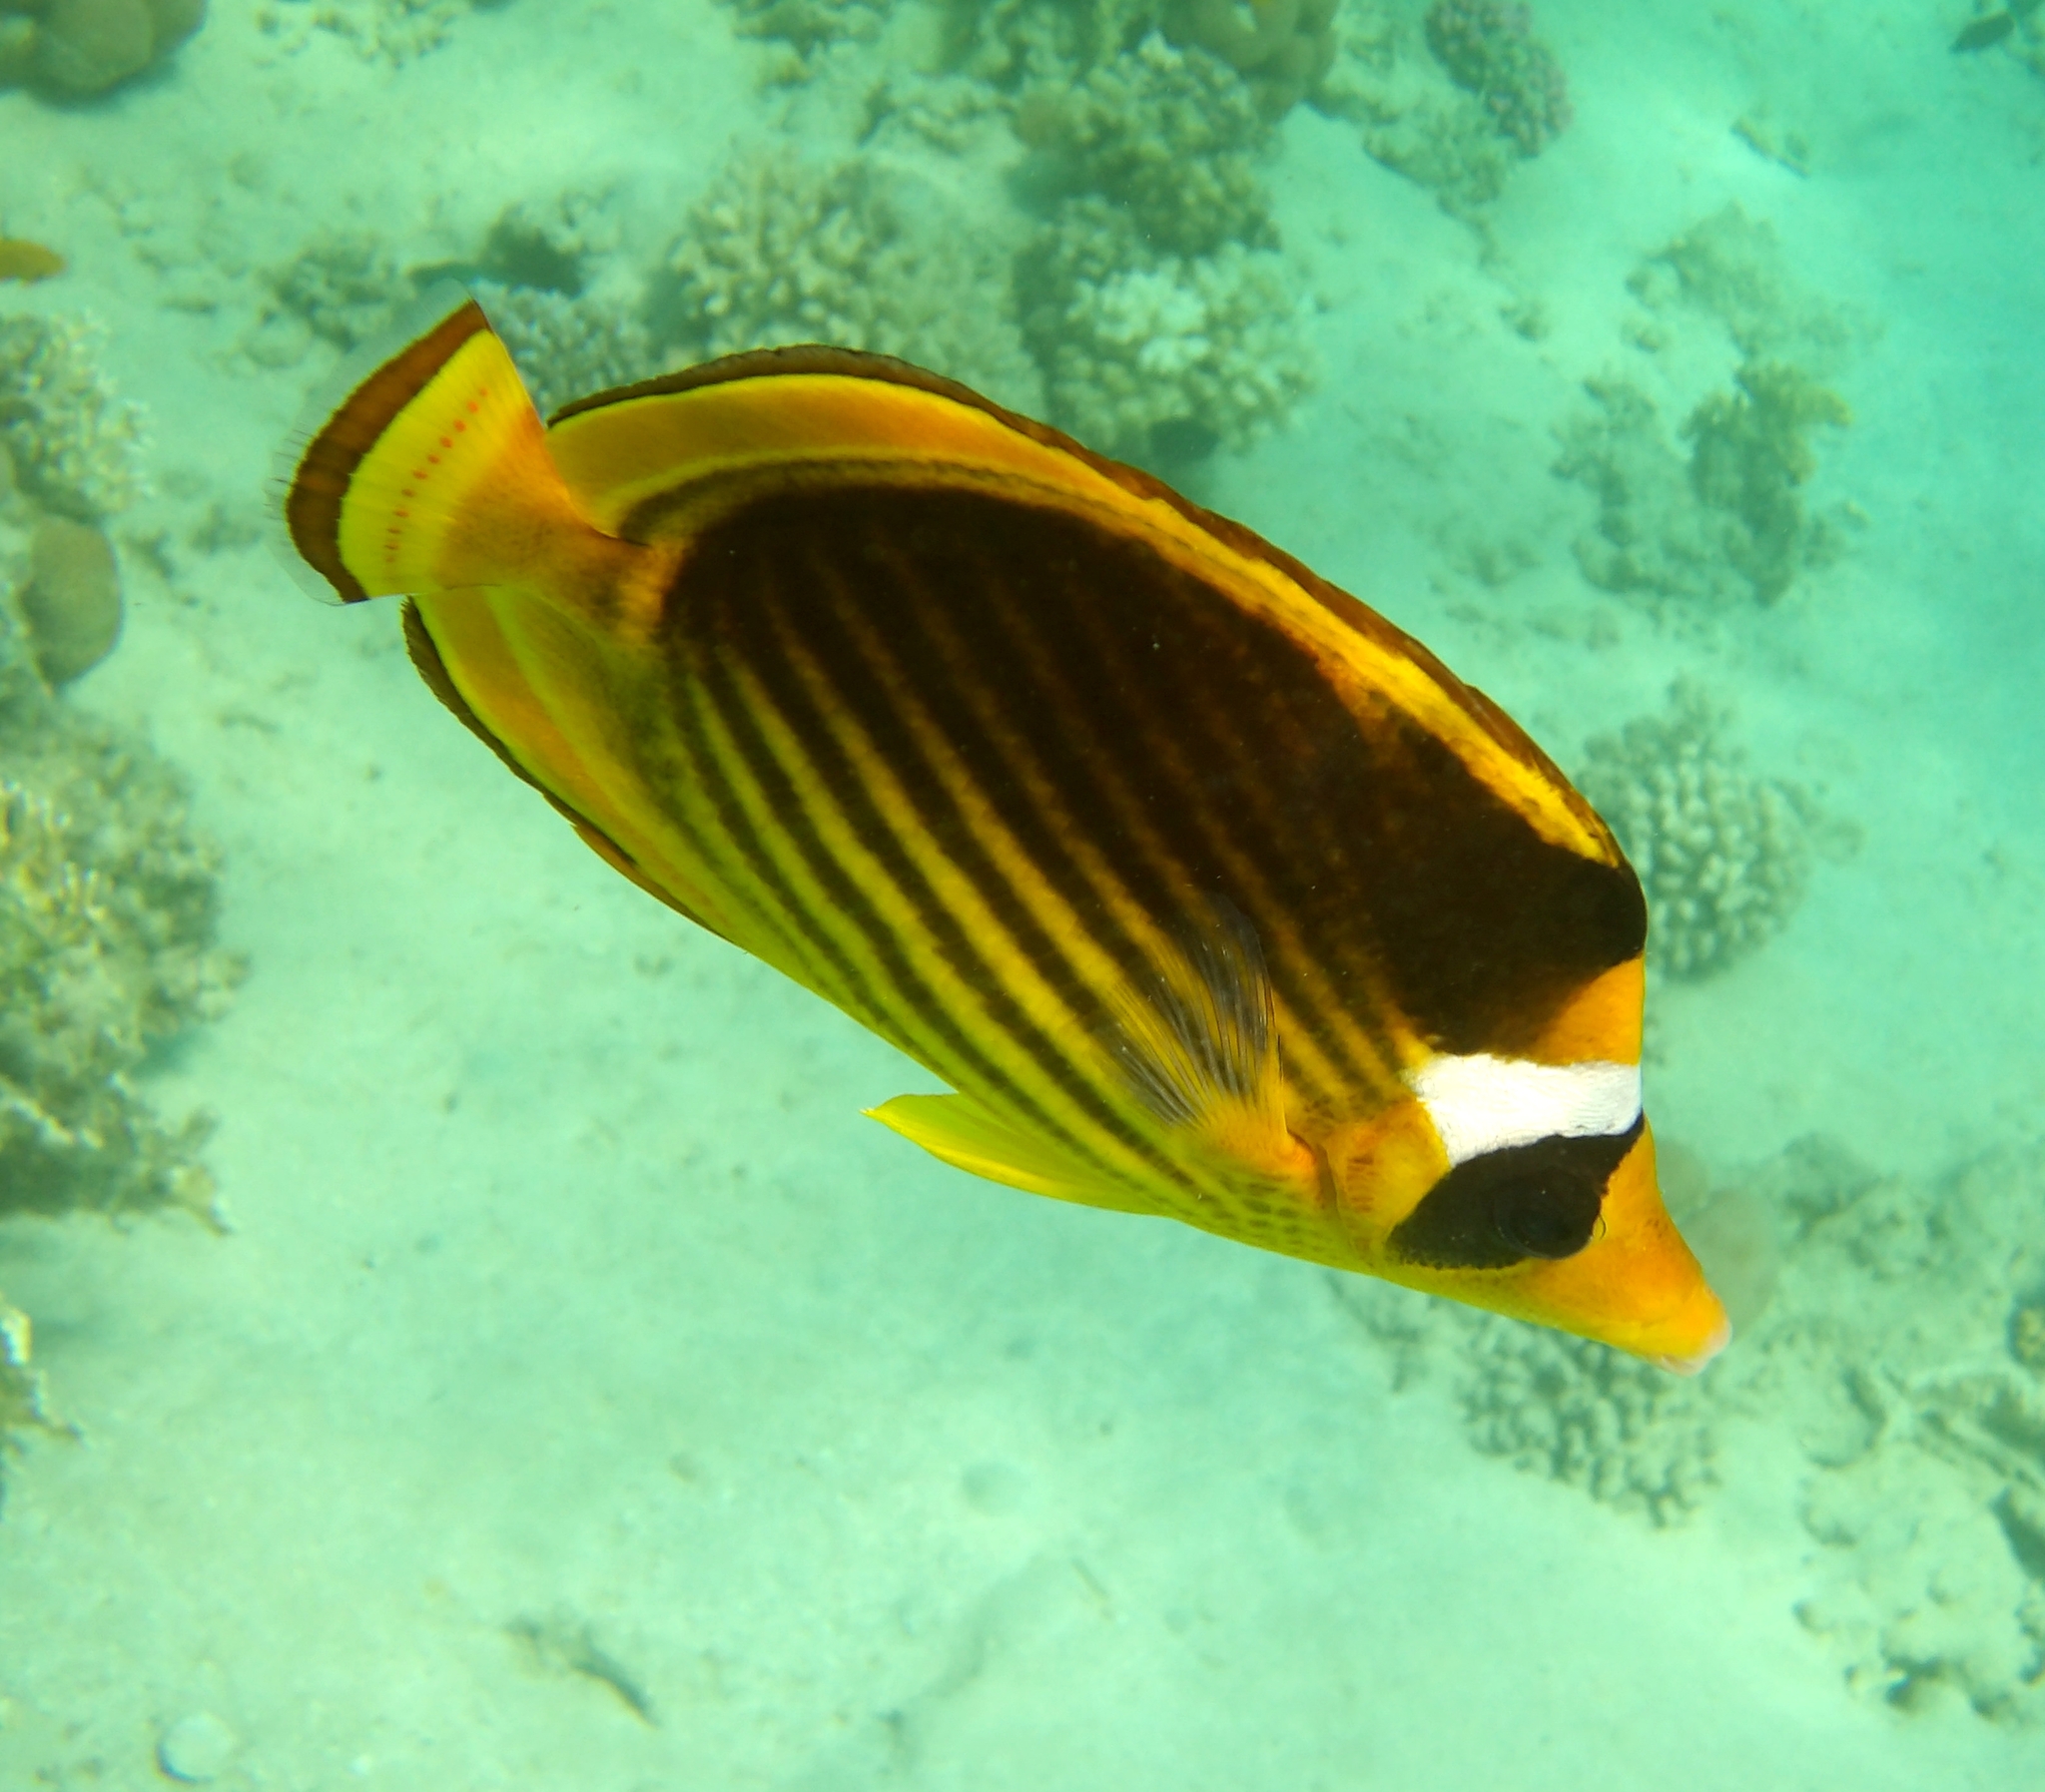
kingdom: Animalia
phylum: Chordata
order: Perciformes
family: Chaetodontidae
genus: Chaetodon
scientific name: Chaetodon fasciatus
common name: Diagonal butterflyfish
